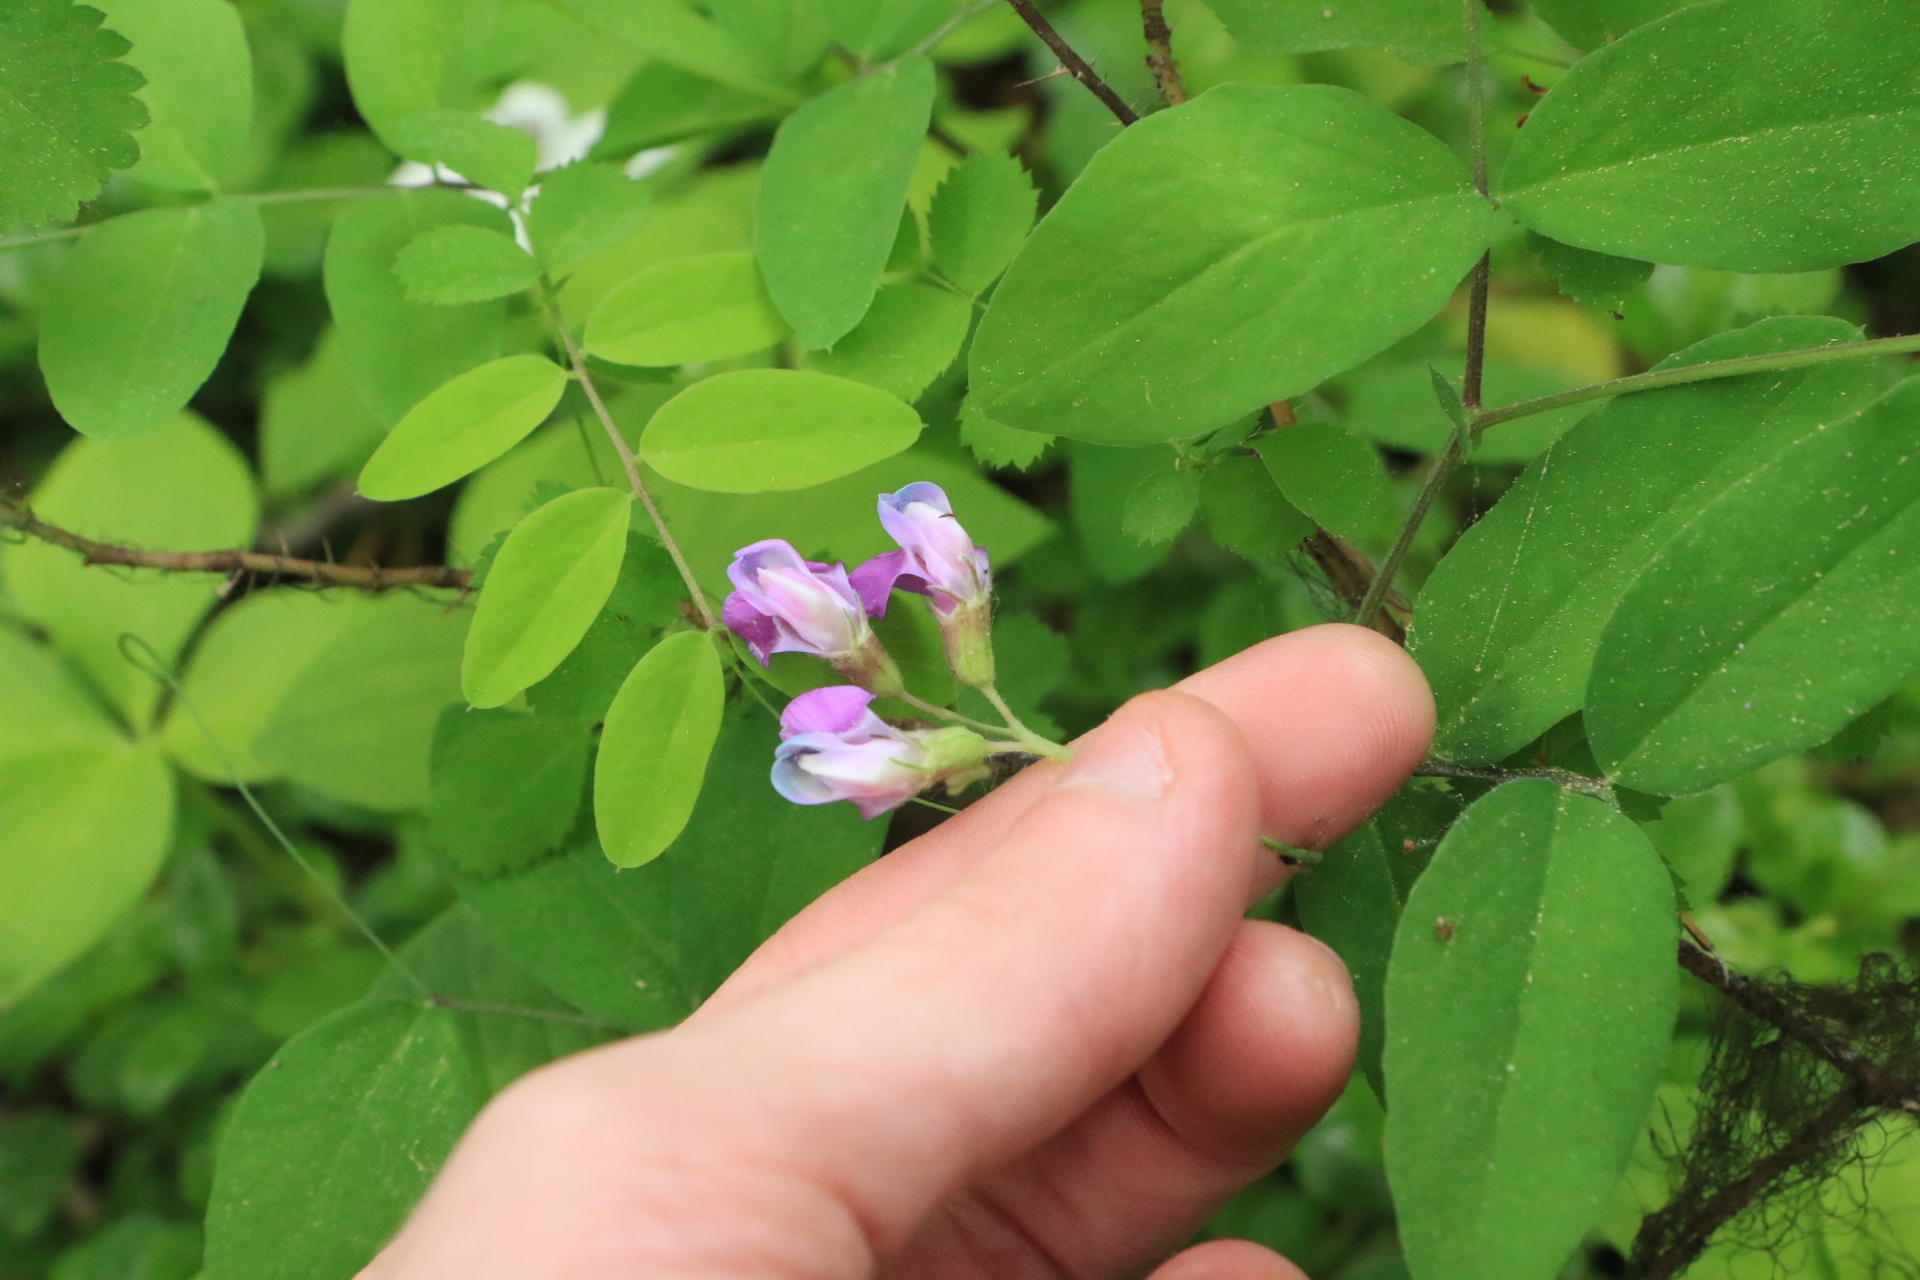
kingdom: Plantae
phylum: Tracheophyta
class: Magnoliopsida
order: Fabales
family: Fabaceae
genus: Lathyrus
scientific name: Lathyrus nevadensis
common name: Sierra nevada peavine
